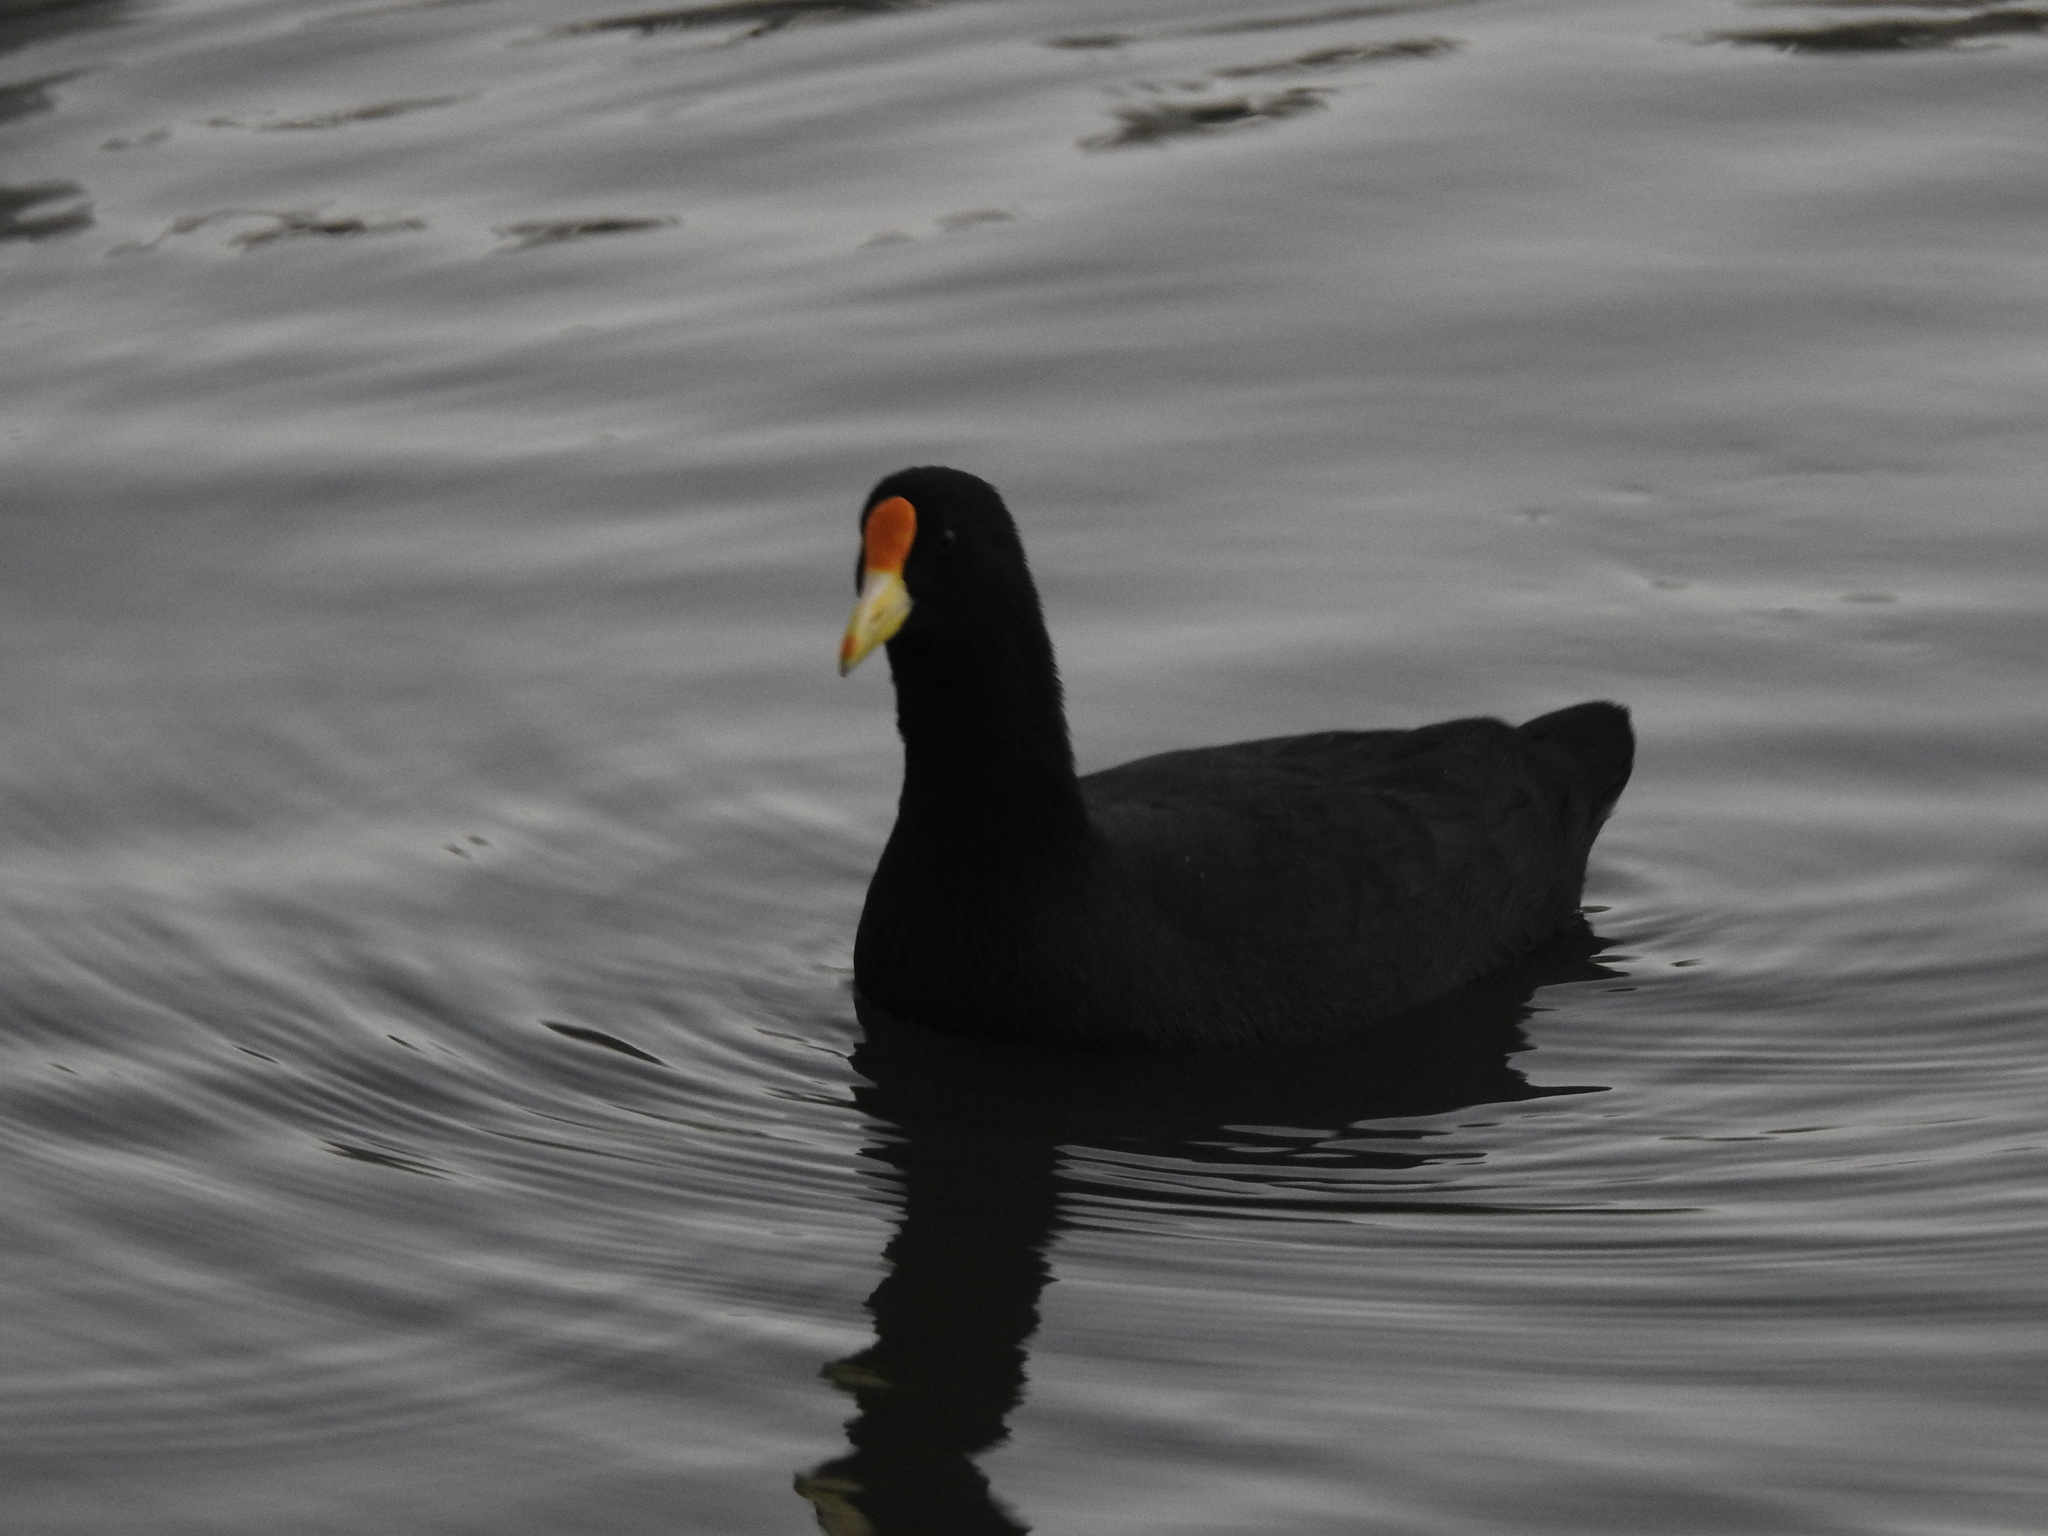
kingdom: Animalia
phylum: Chordata
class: Aves
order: Gruiformes
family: Rallidae
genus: Fulica
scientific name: Fulica leucoptera
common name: White-winged coot
